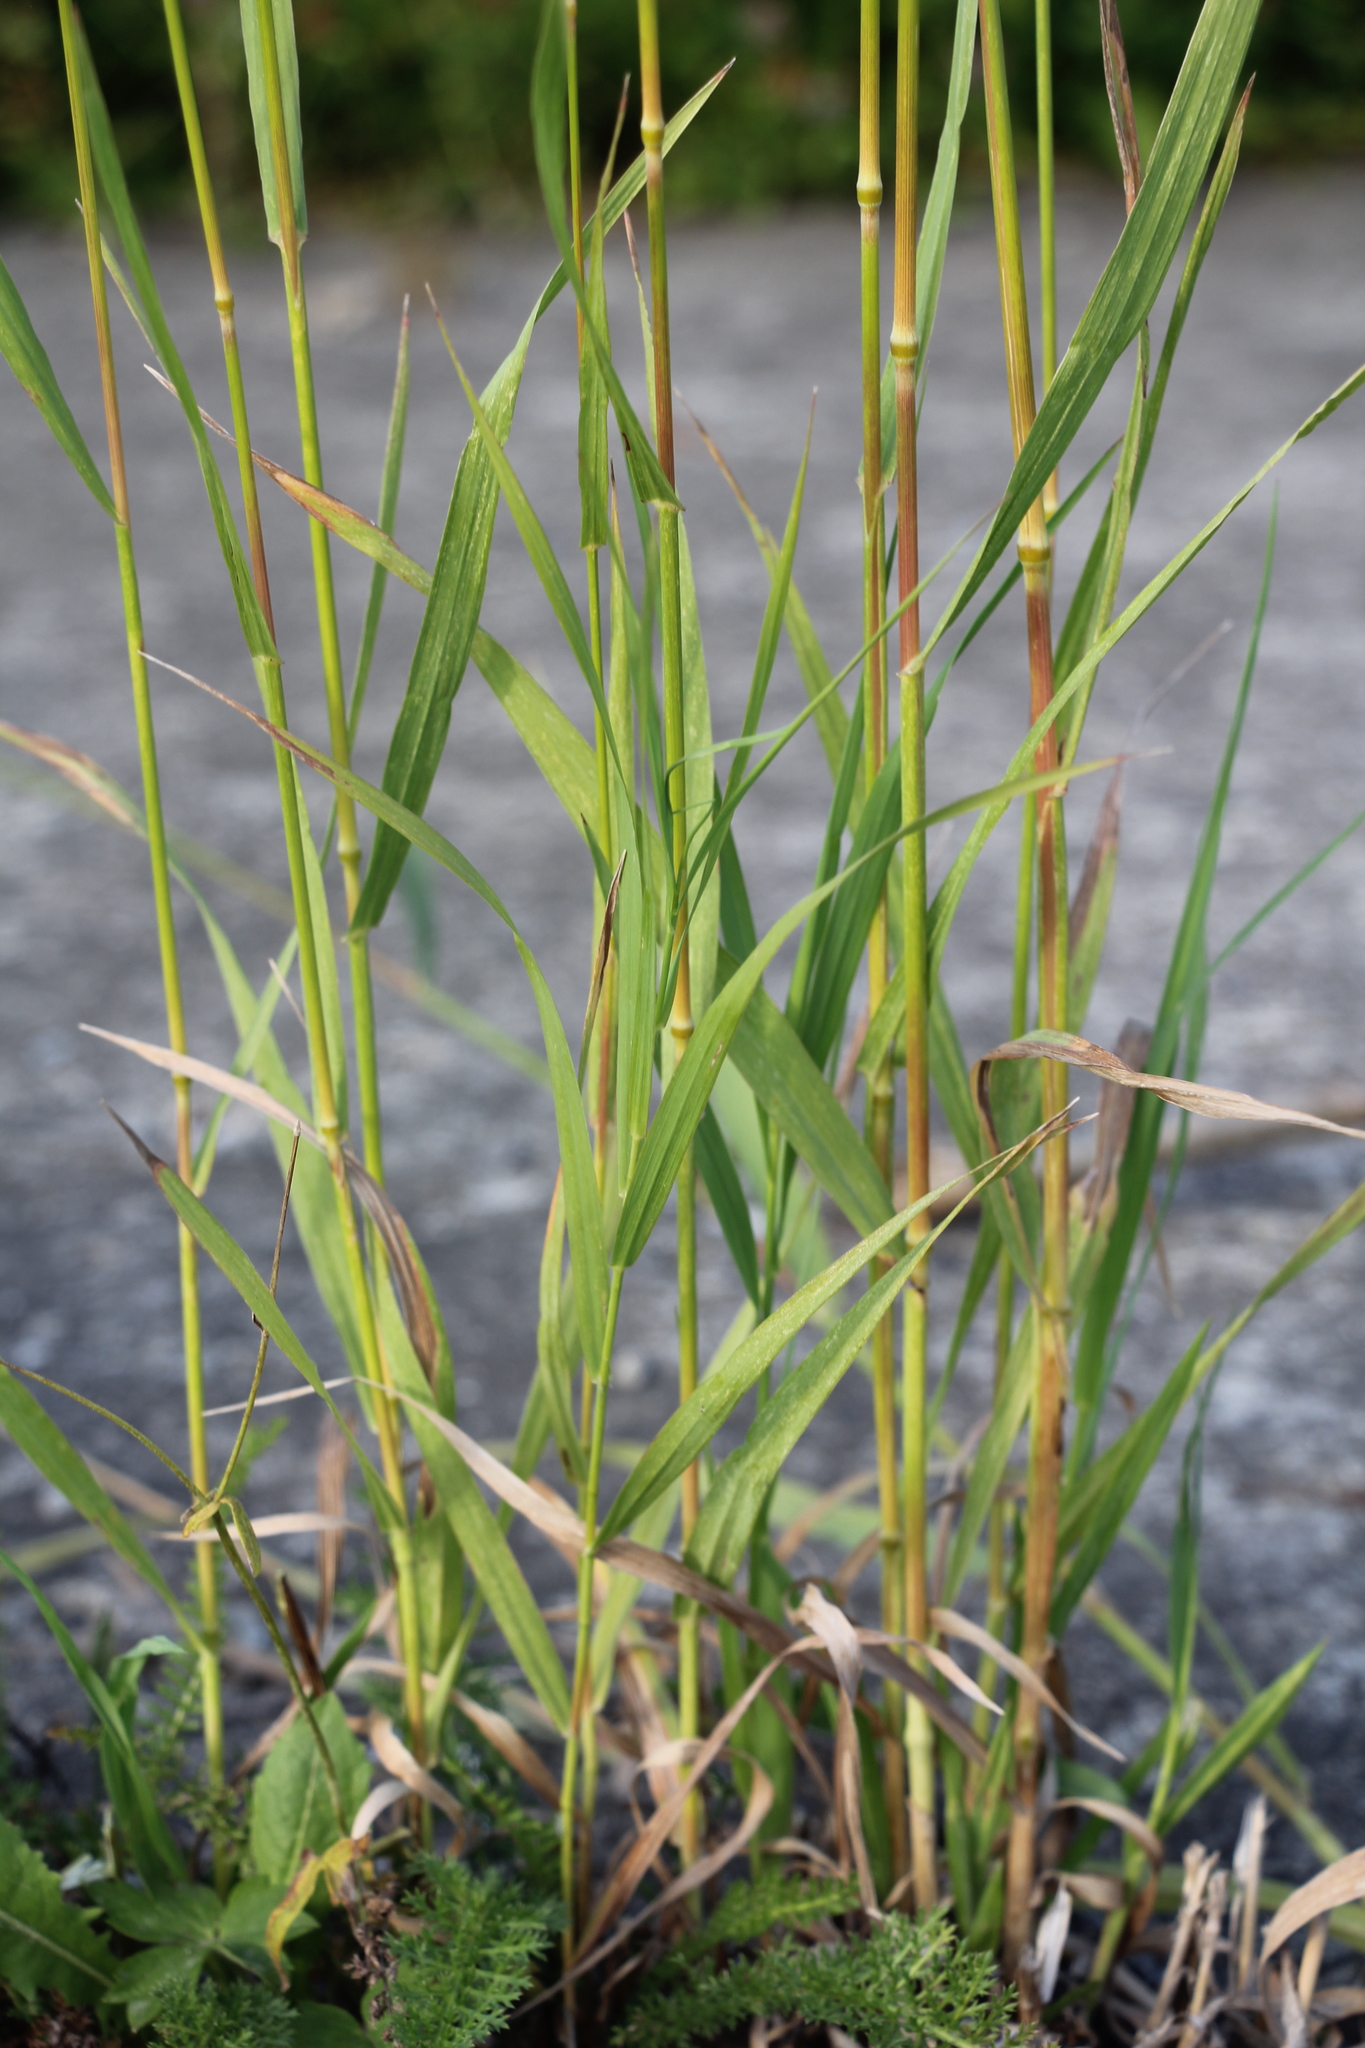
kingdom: Plantae
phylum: Tracheophyta
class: Liliopsida
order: Poales
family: Poaceae
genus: Bromus
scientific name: Bromus inermis
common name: Smooth brome
